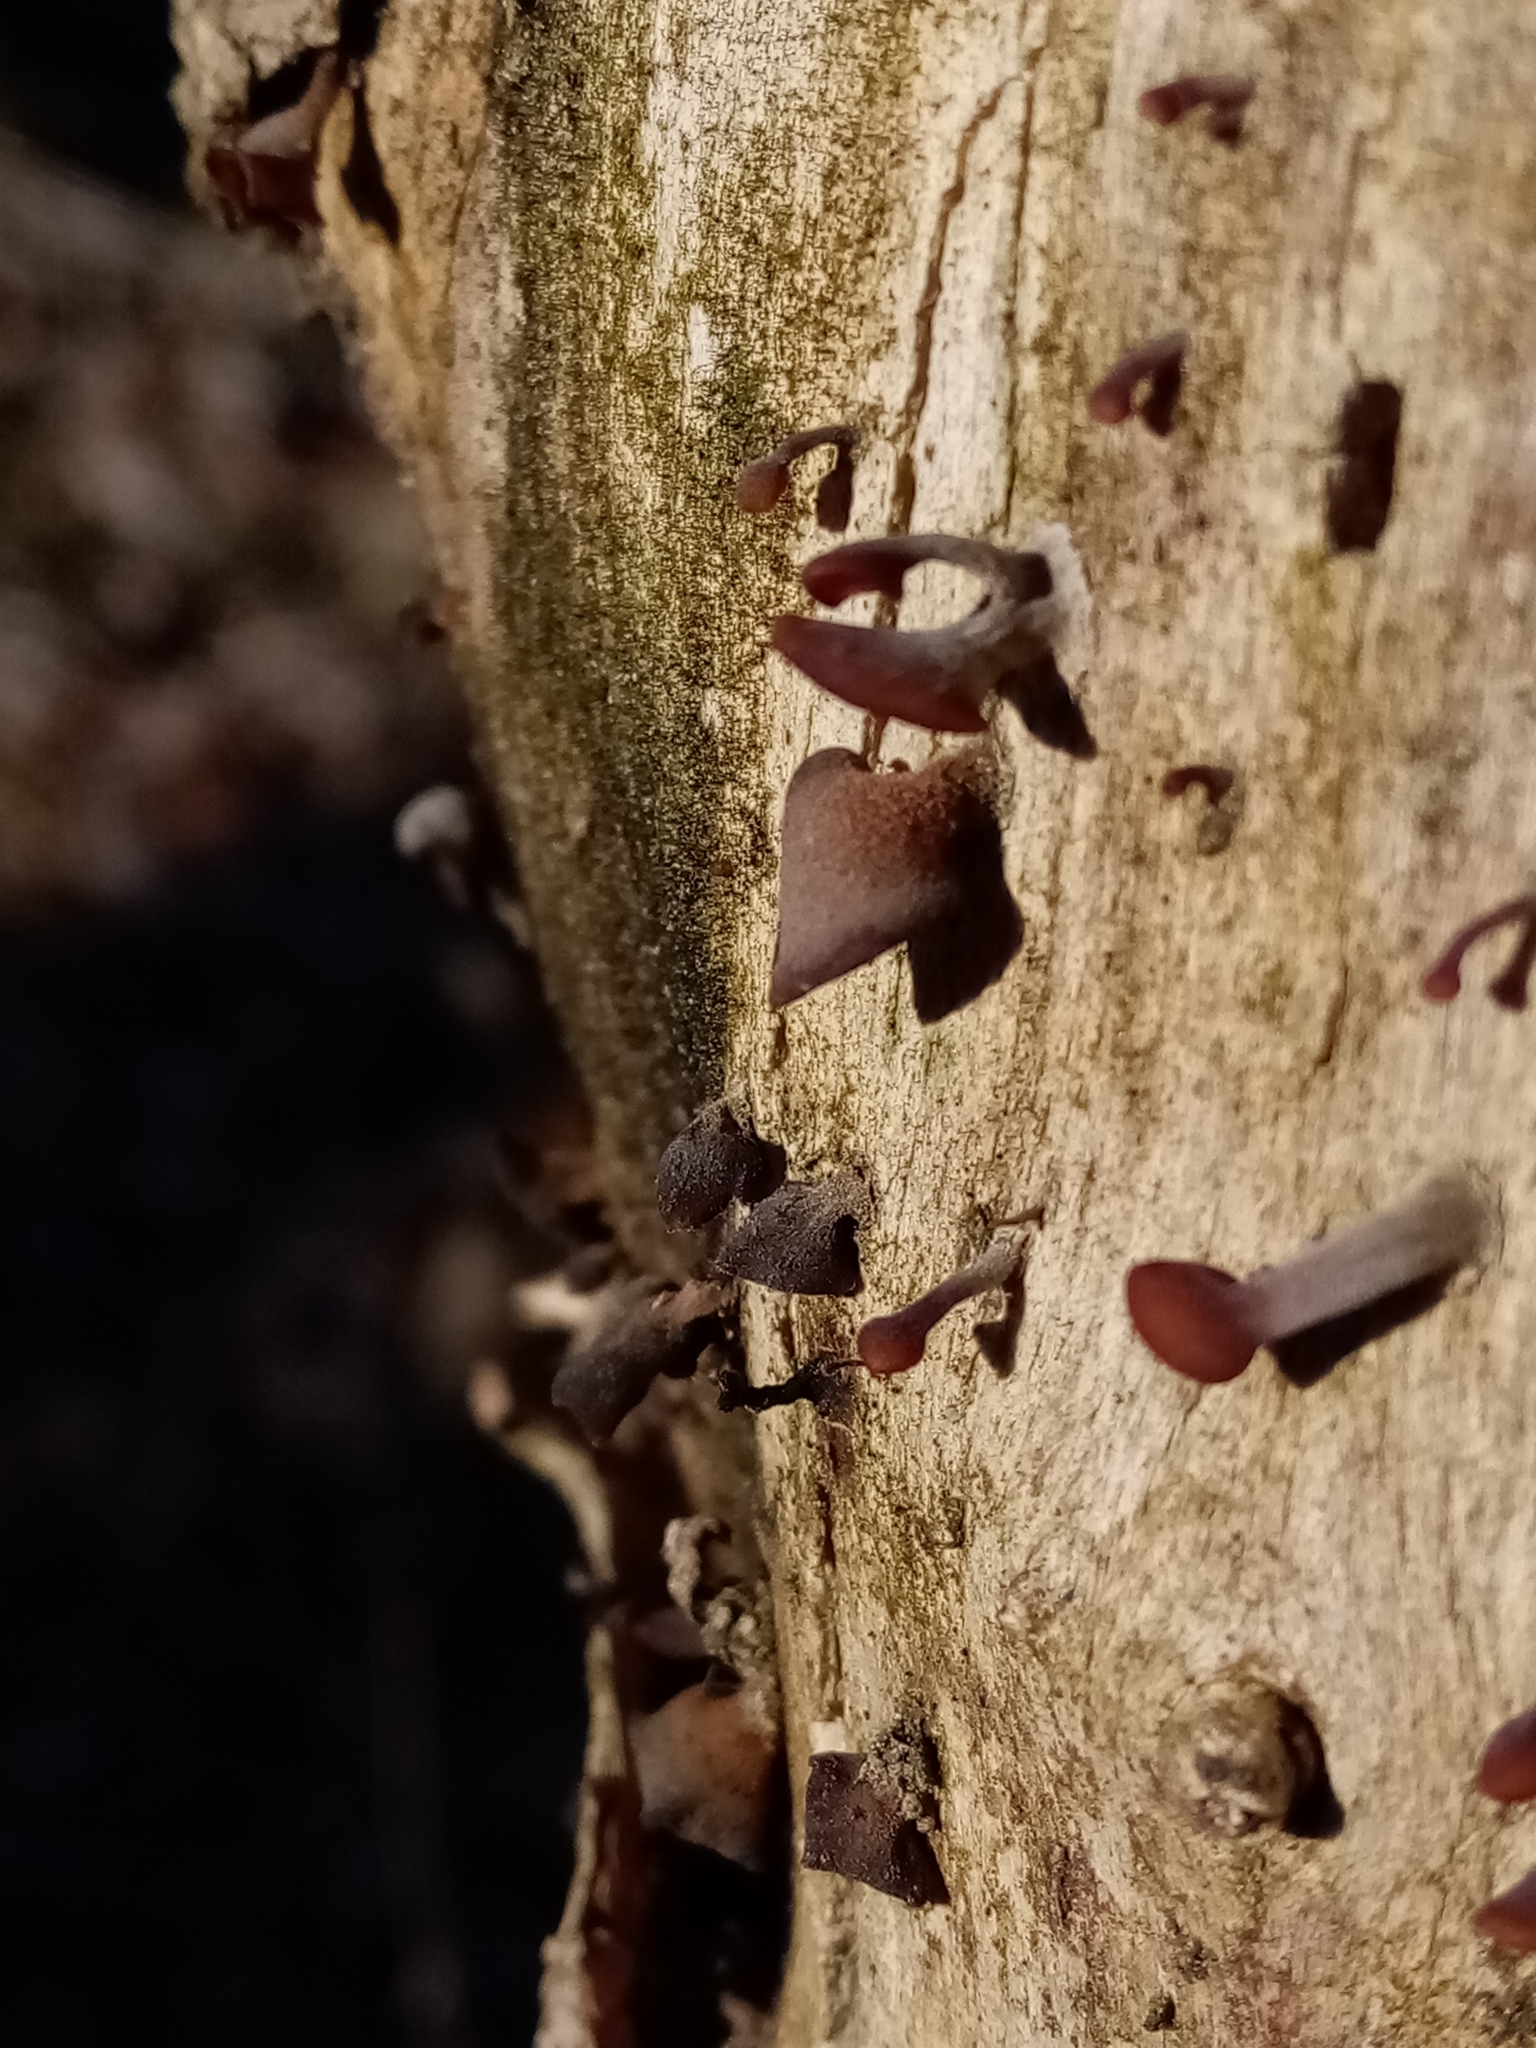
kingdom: Fungi
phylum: Basidiomycota
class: Dacrymycetes
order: Dacrymycetales
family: Dacrymycetaceae
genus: Dacryopinax
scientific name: Dacryopinax elegans
